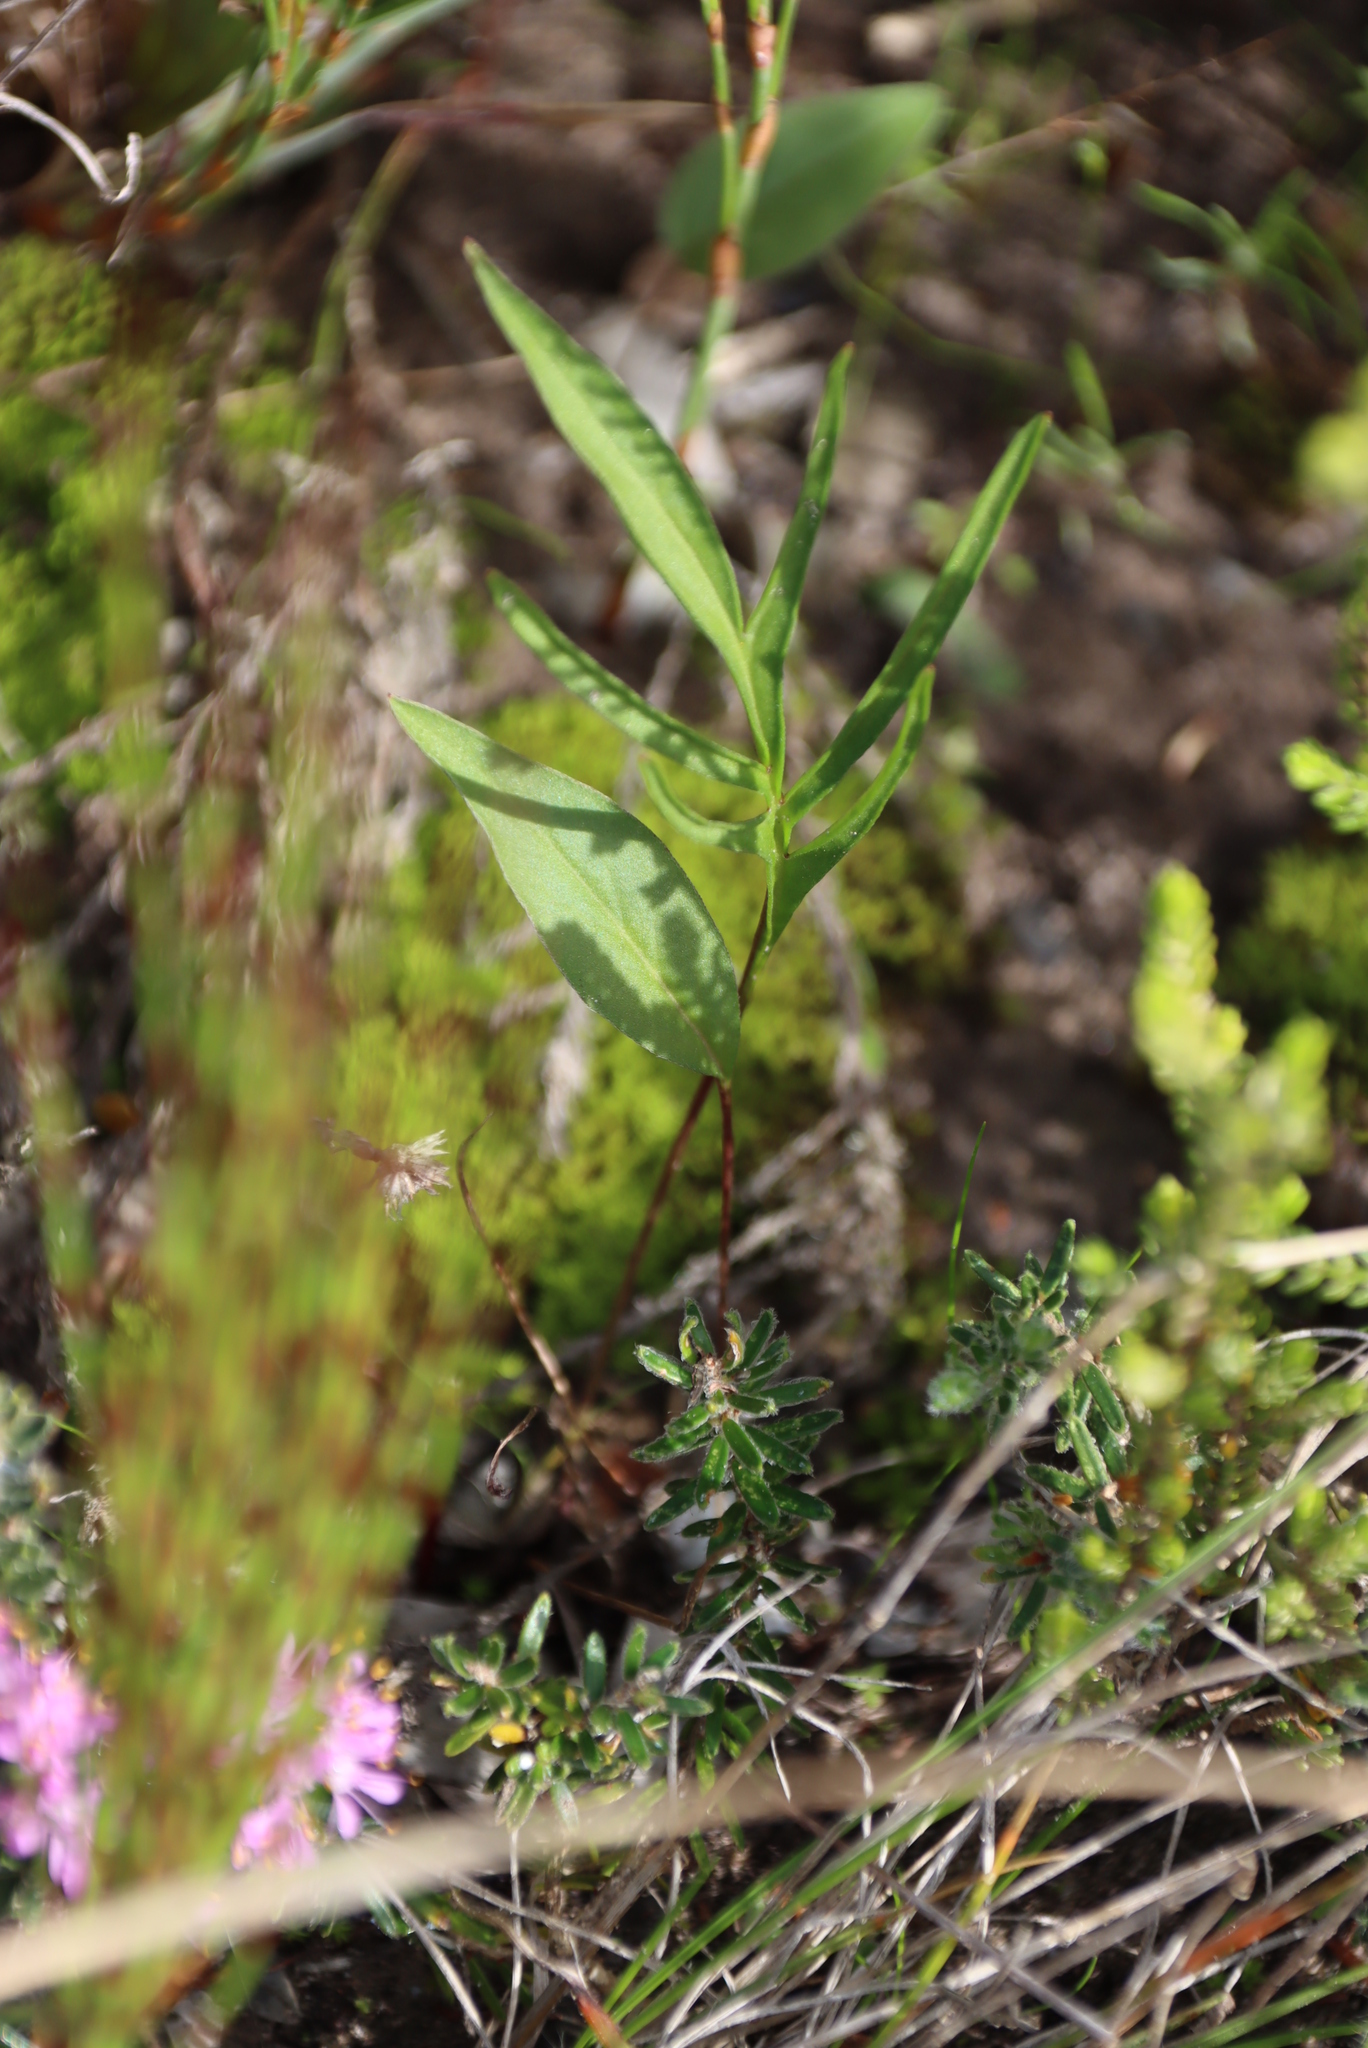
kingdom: Plantae
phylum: Tracheophyta
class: Magnoliopsida
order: Geraniales
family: Geraniaceae
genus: Pelargonium
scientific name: Pelargonium dipetalum
